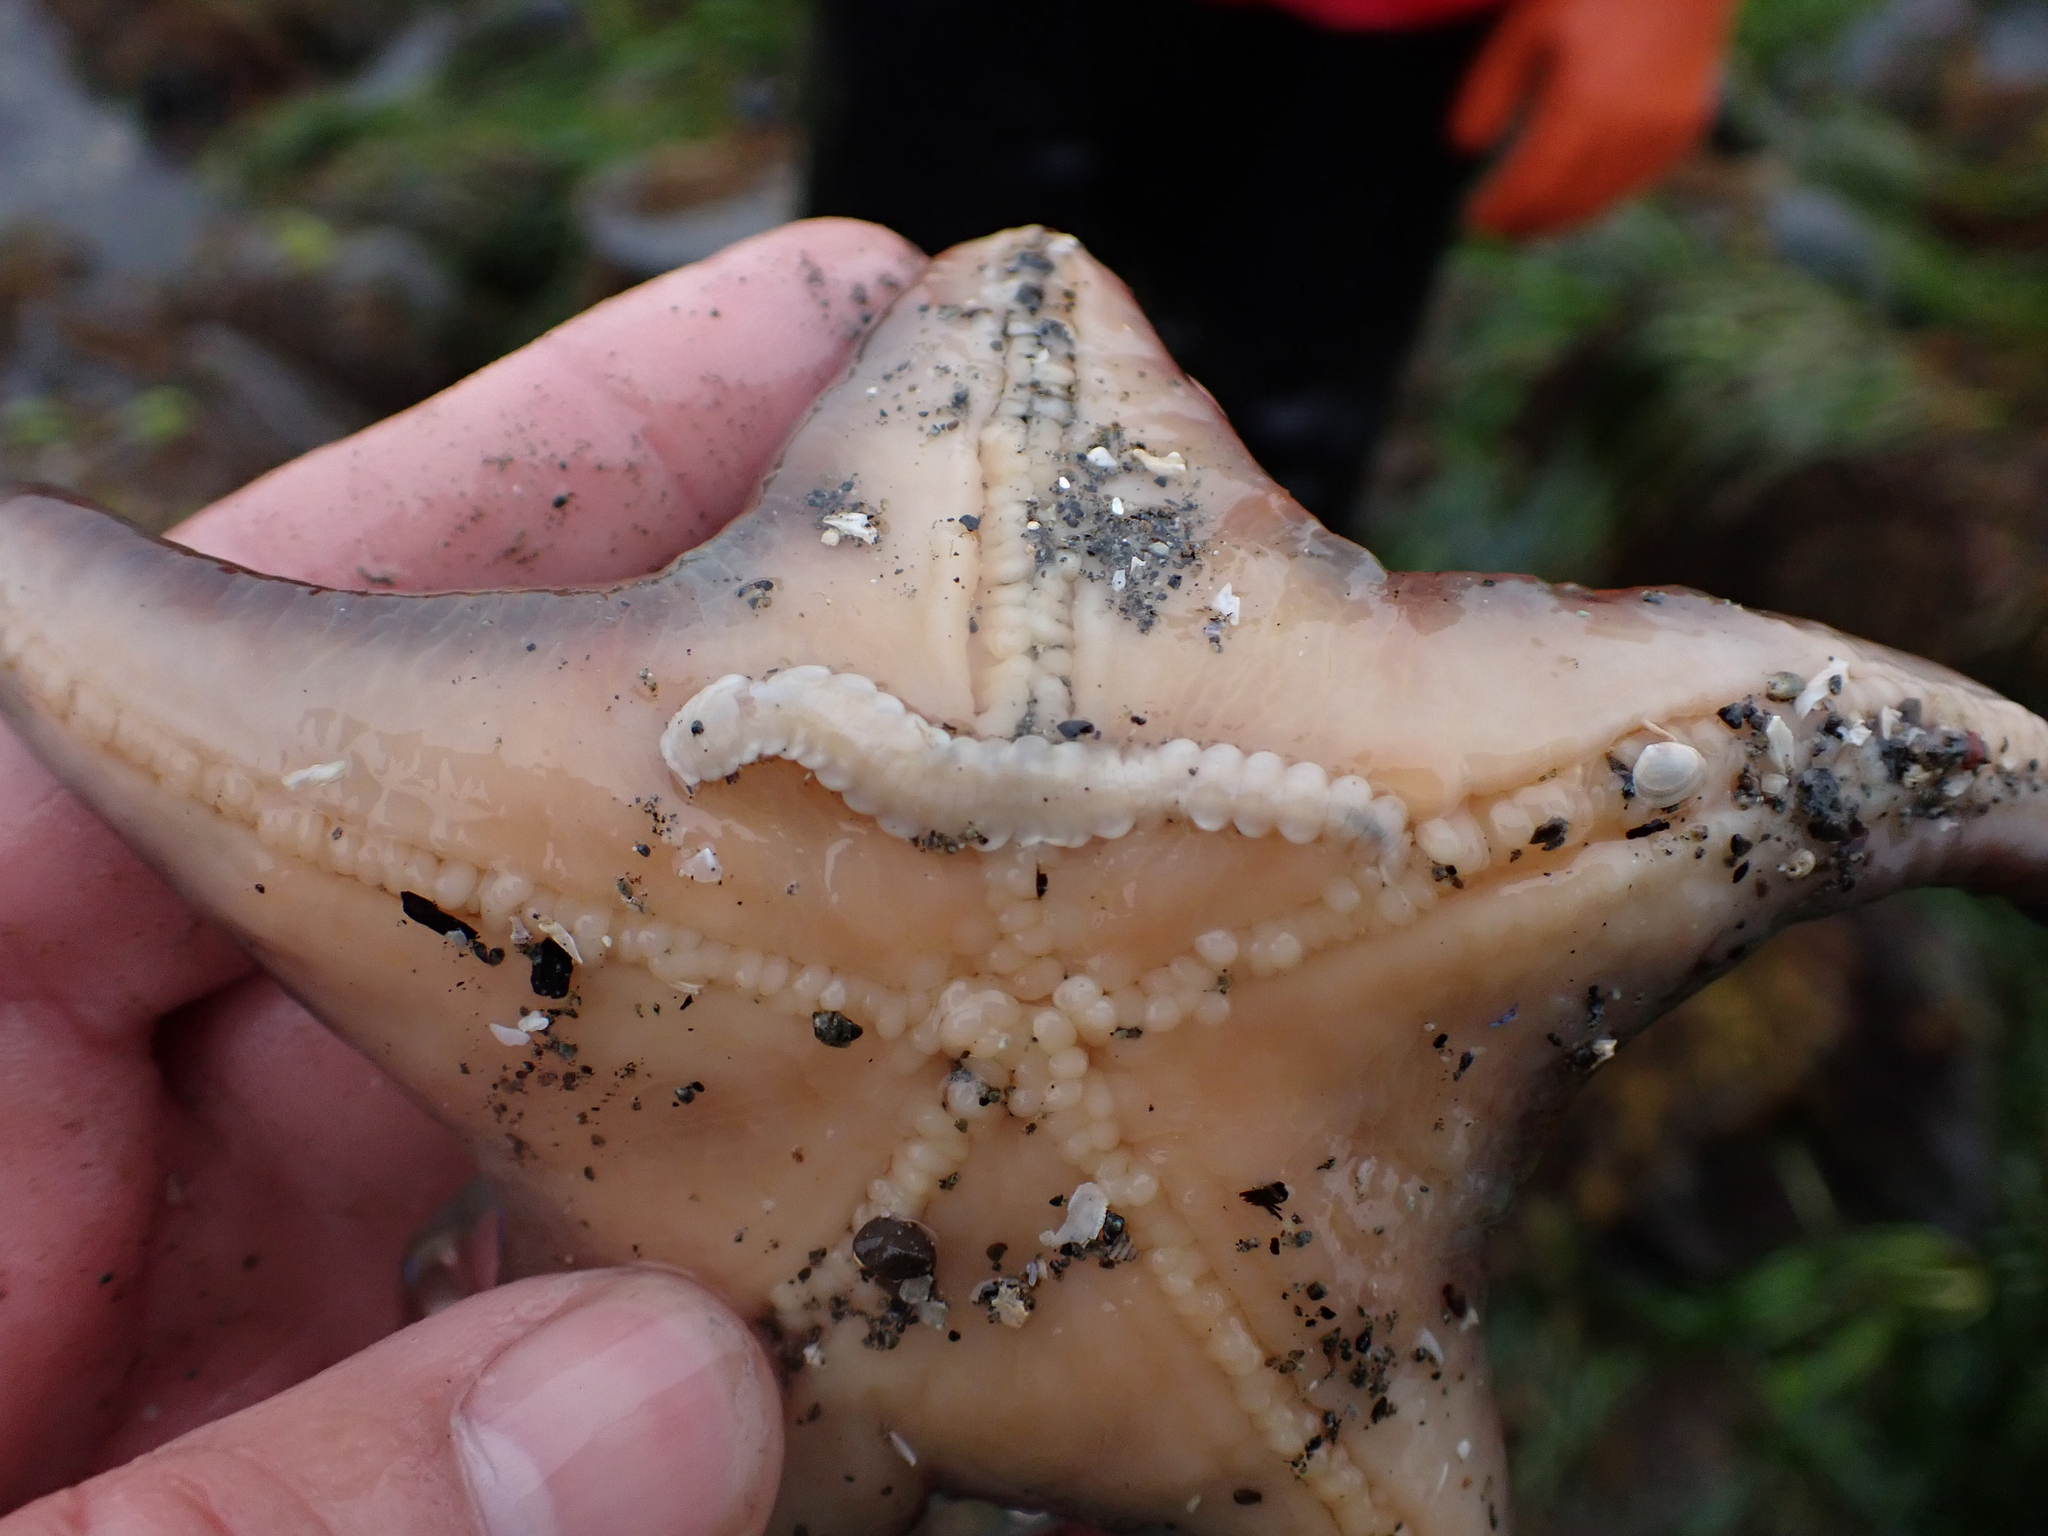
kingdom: Animalia
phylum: Annelida
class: Polychaeta
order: Phyllodocida
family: Polynoidae
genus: Arctonoe
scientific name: Arctonoe vittata
